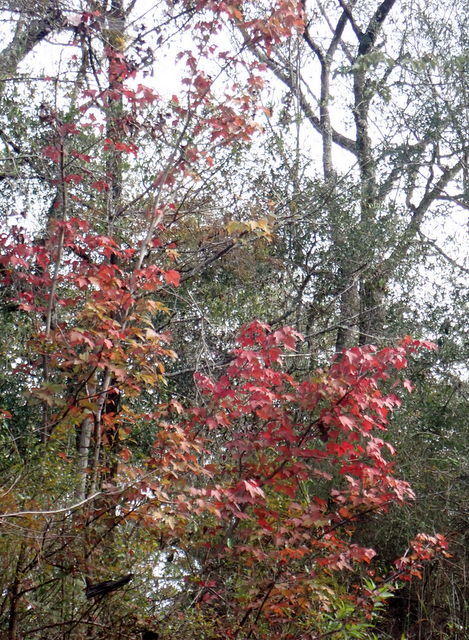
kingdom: Plantae
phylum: Tracheophyta
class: Magnoliopsida
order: Saxifragales
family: Altingiaceae
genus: Liquidambar
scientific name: Liquidambar styraciflua
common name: Sweet gum
